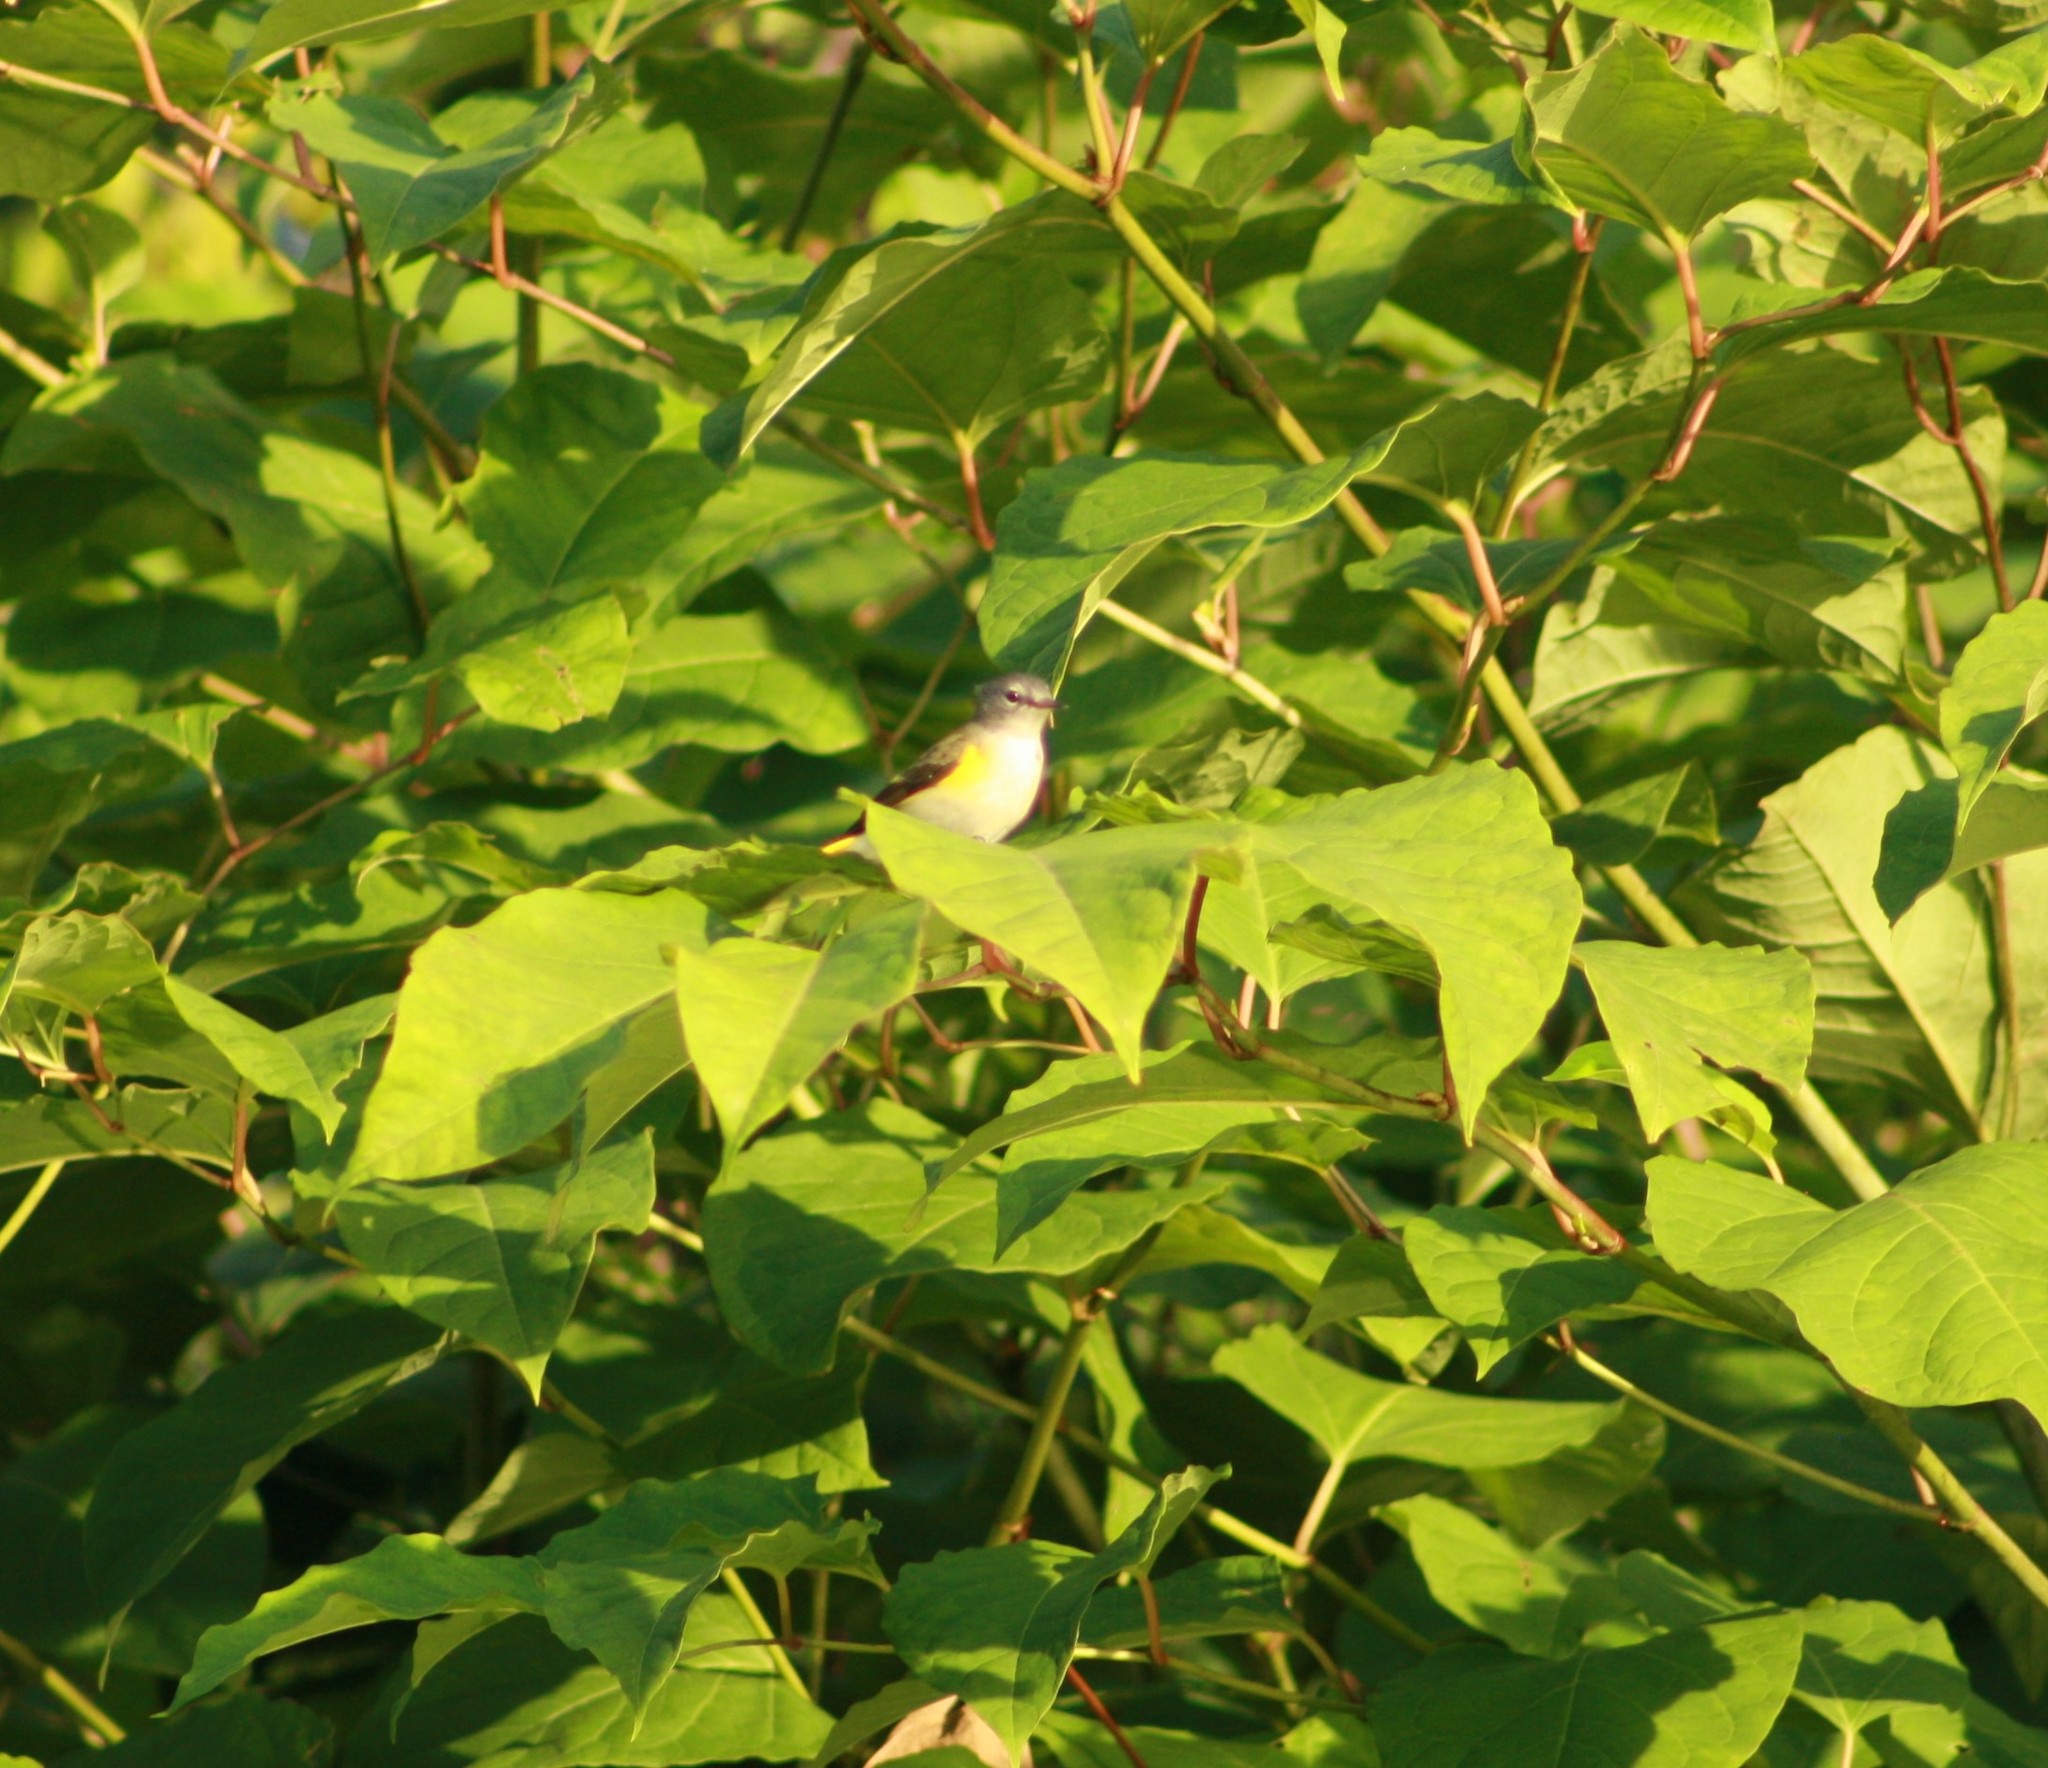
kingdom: Animalia
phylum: Chordata
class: Aves
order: Passeriformes
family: Parulidae
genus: Setophaga
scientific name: Setophaga ruticilla
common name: American redstart
